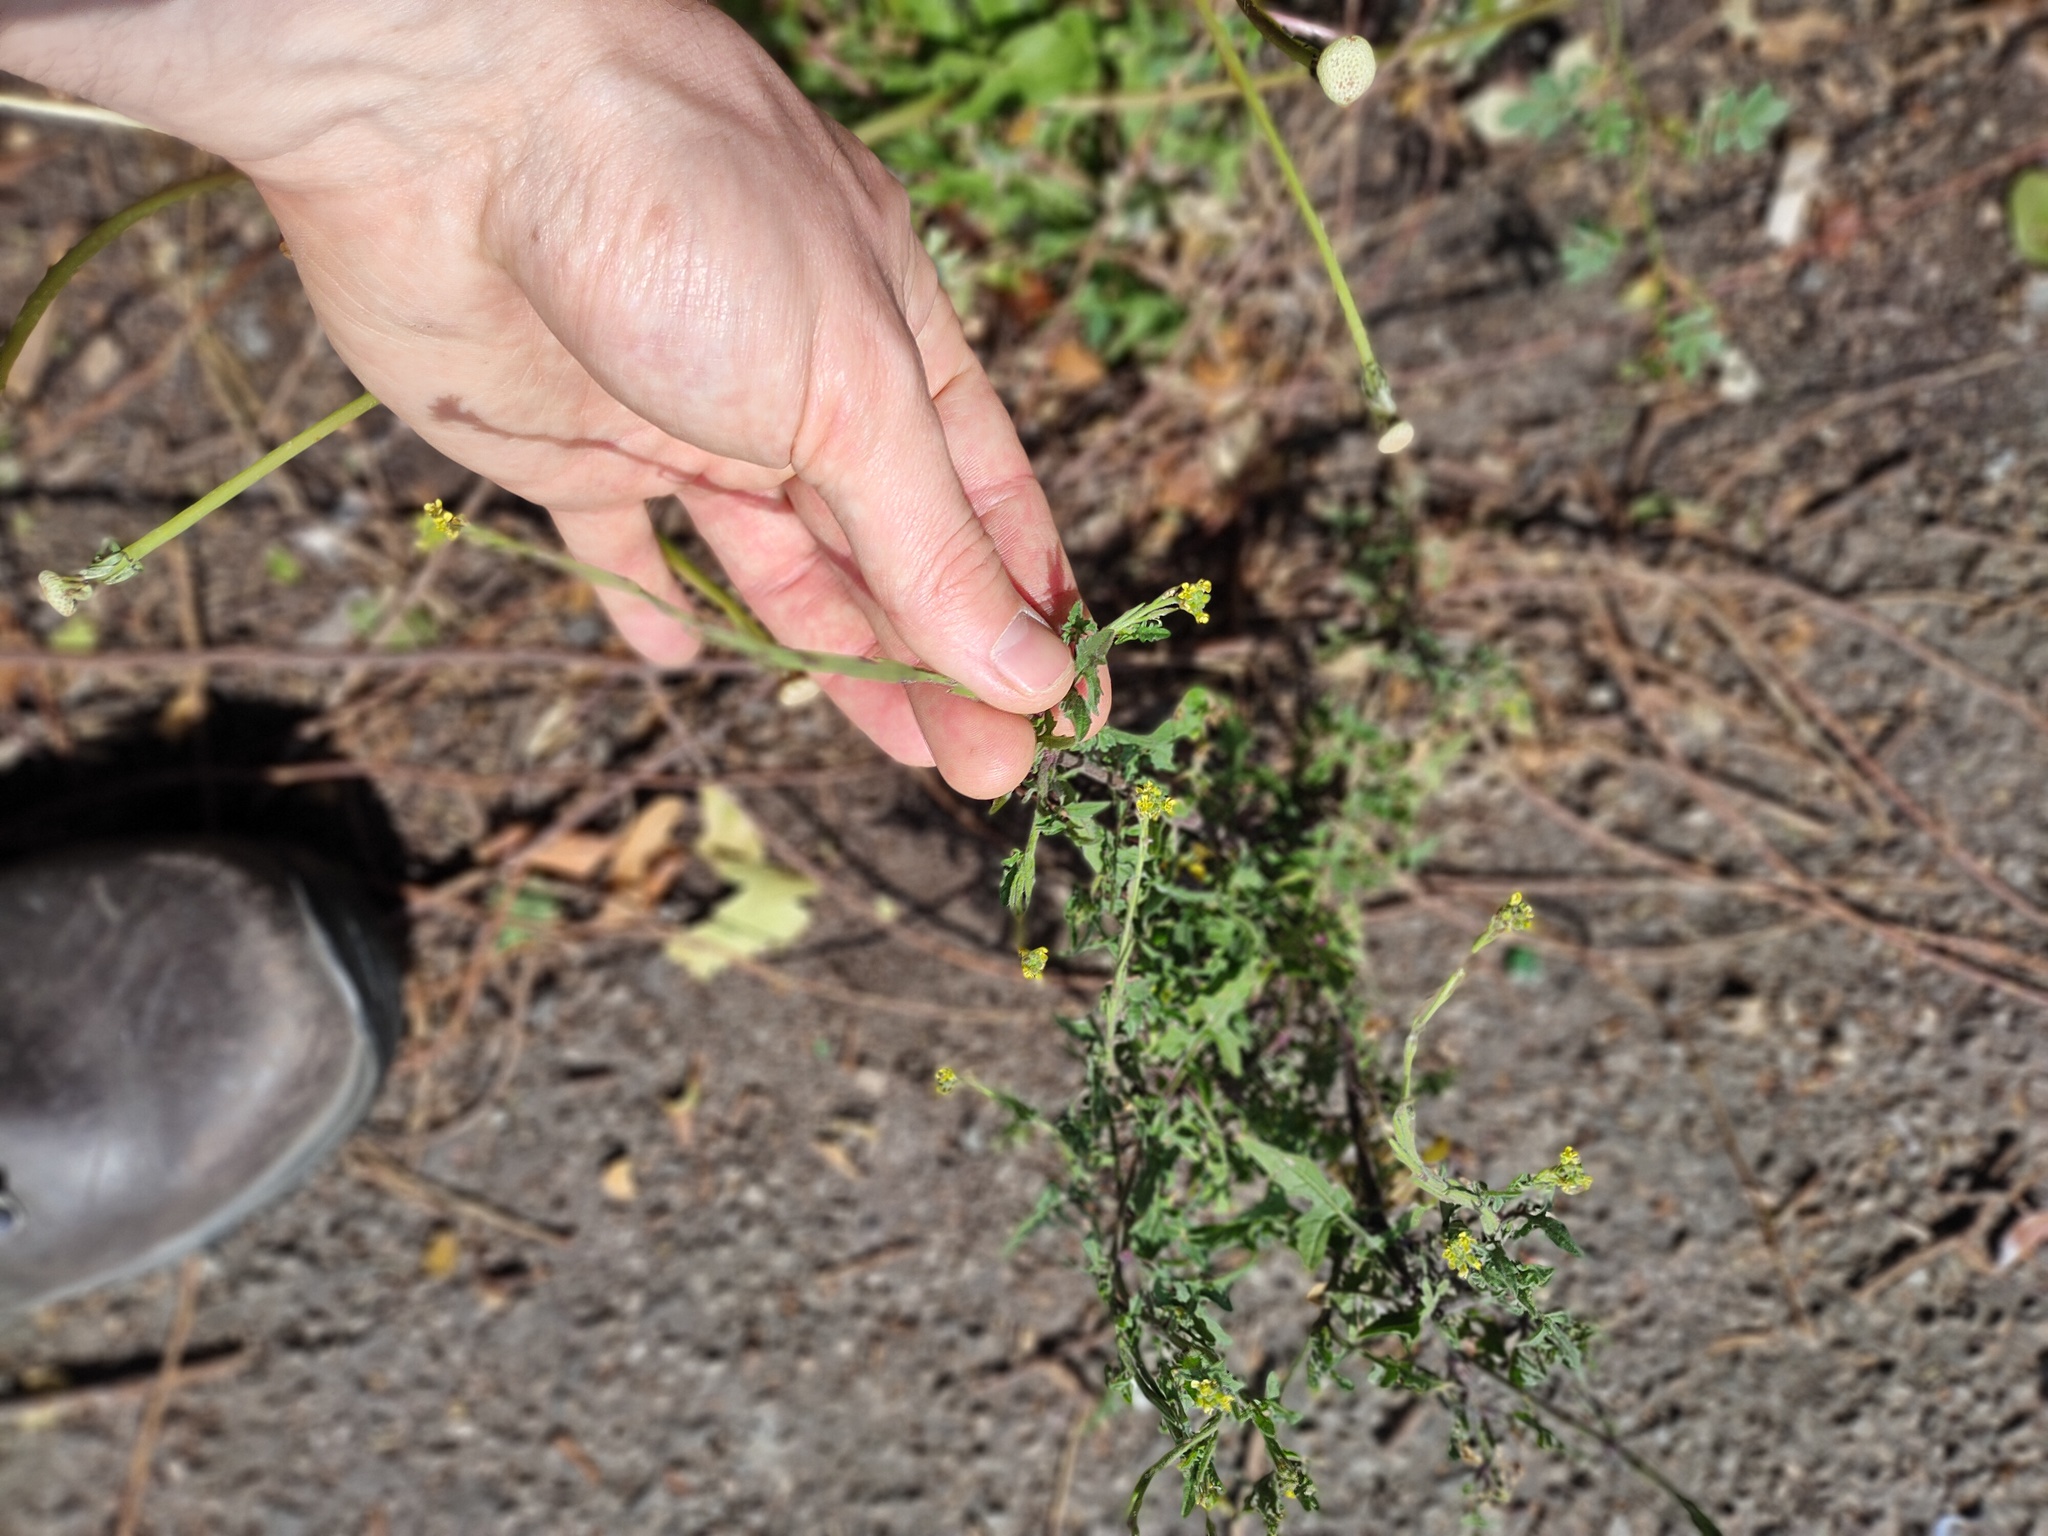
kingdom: Plantae
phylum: Tracheophyta
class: Magnoliopsida
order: Brassicales
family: Brassicaceae
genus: Sisymbrium
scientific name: Sisymbrium officinale
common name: Hedge mustard
